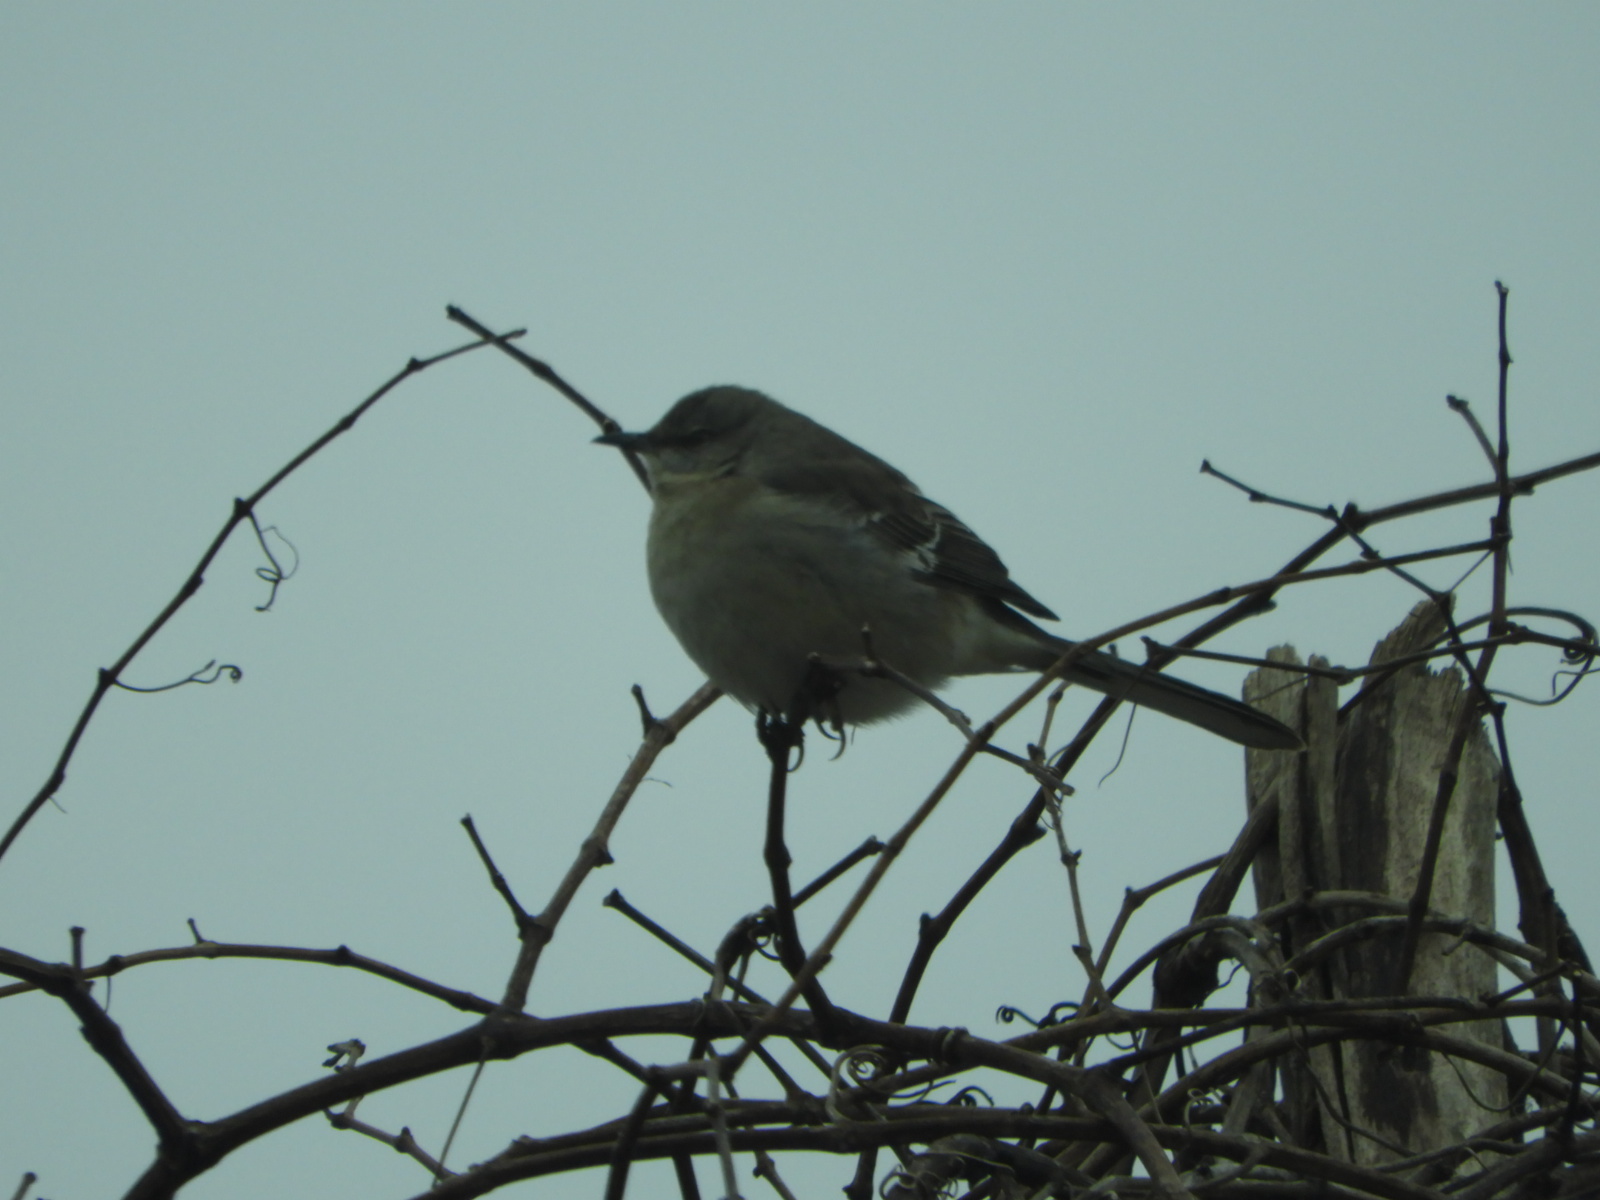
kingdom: Animalia
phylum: Chordata
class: Aves
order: Passeriformes
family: Mimidae
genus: Mimus
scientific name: Mimus polyglottos
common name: Northern mockingbird
